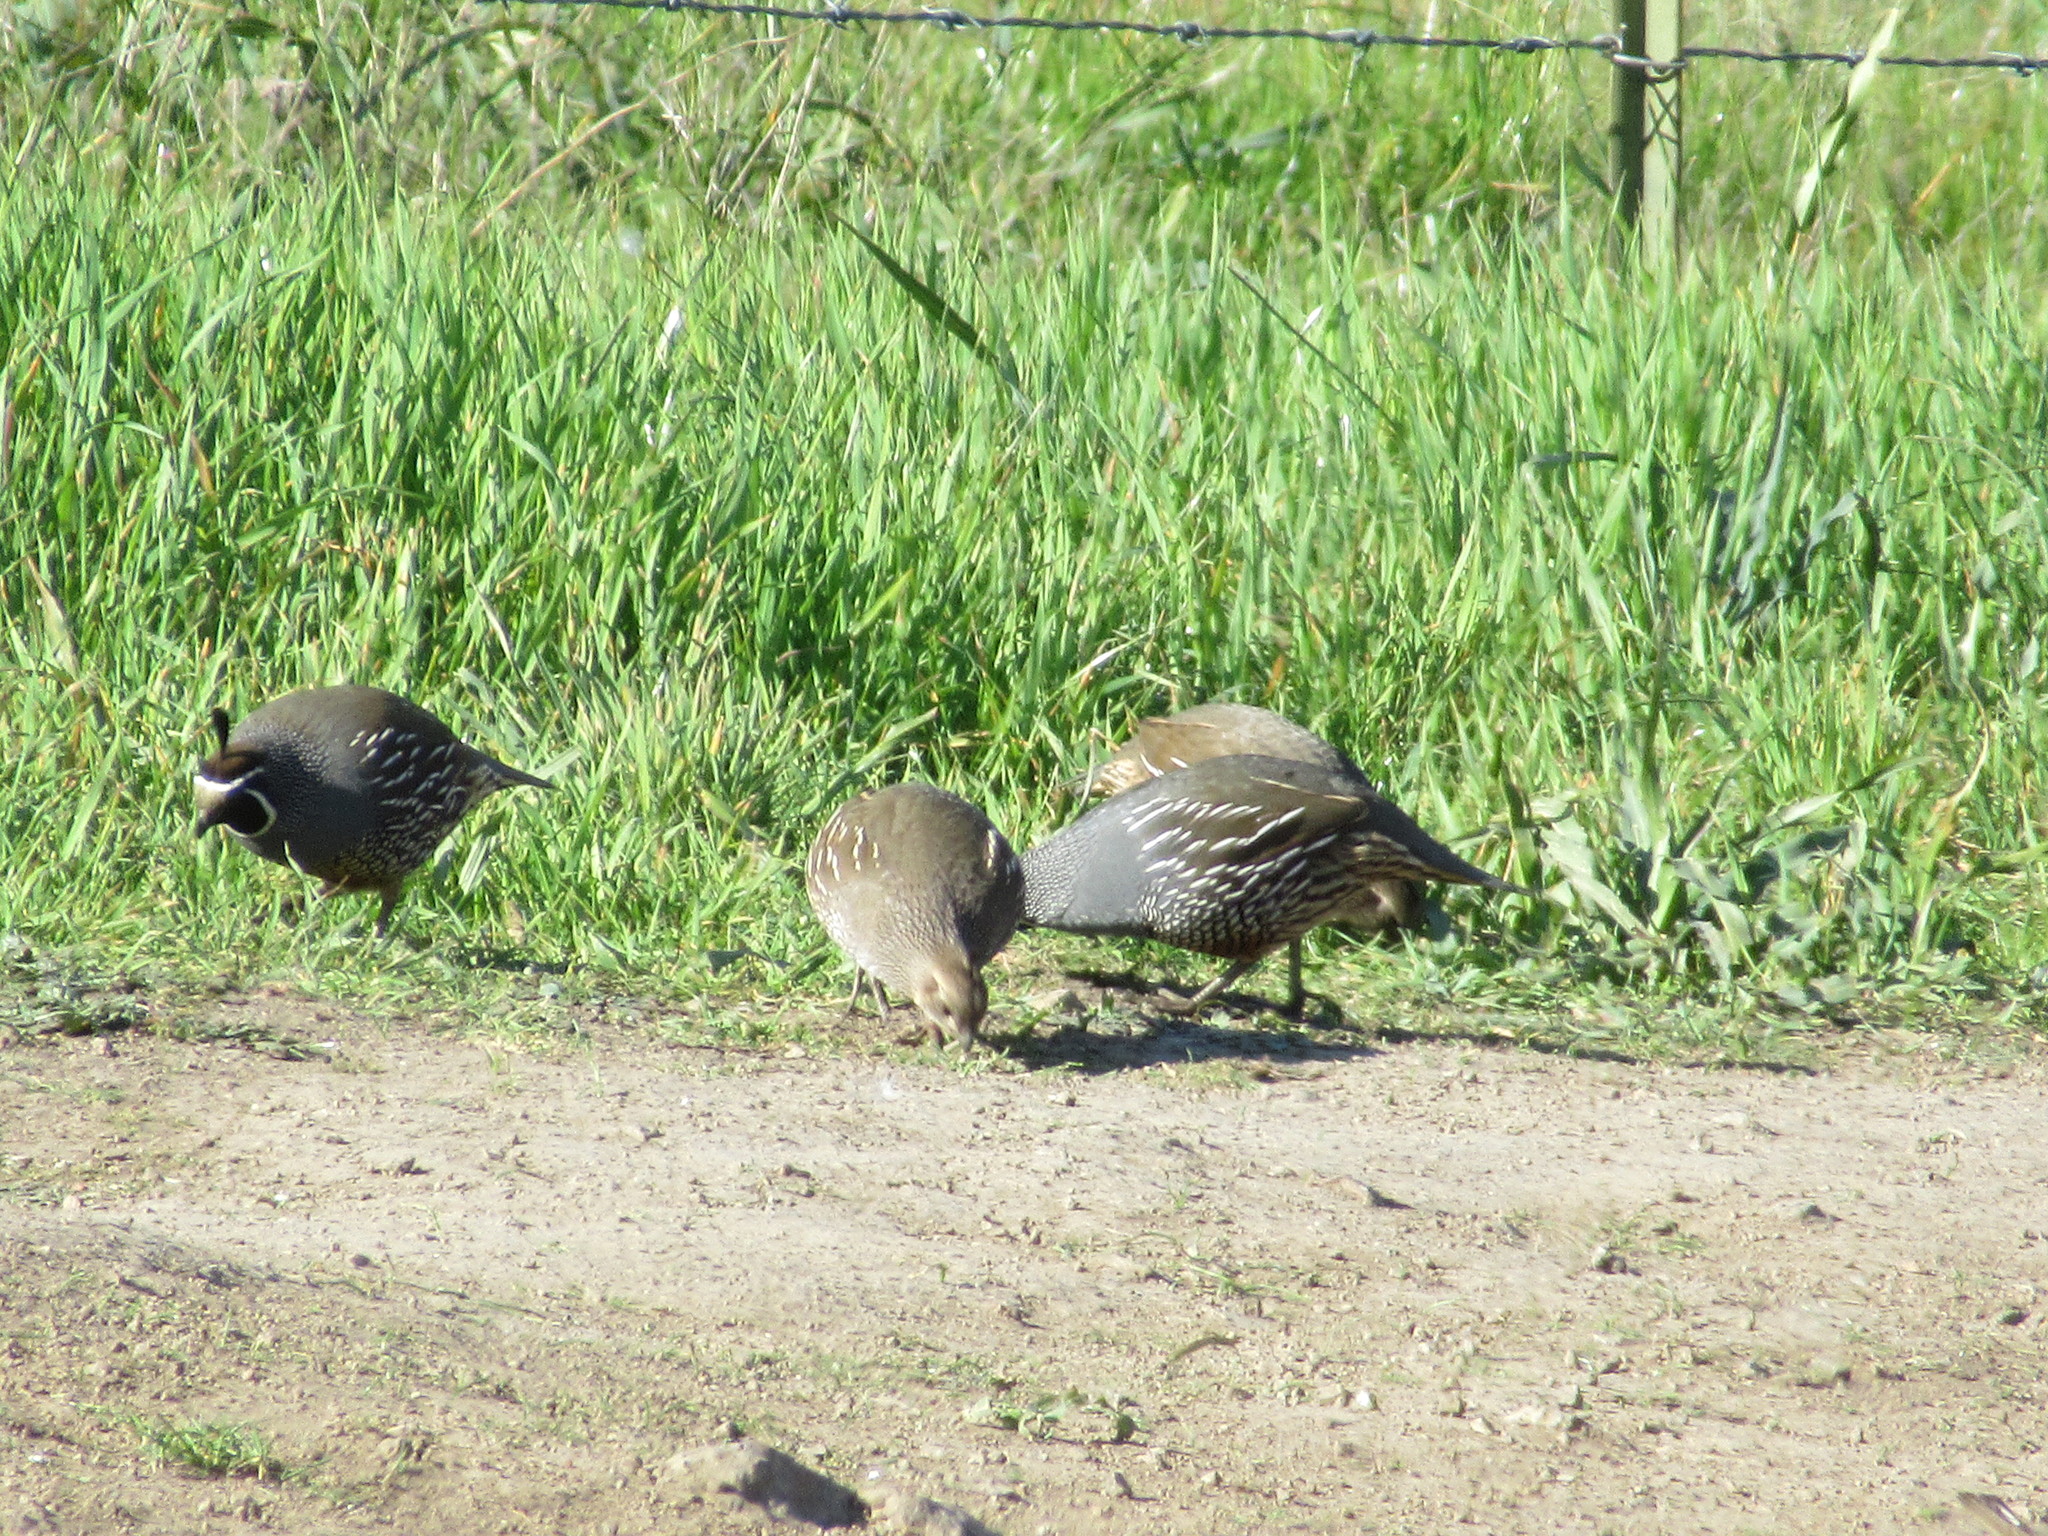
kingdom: Animalia
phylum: Chordata
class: Aves
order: Galliformes
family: Odontophoridae
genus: Callipepla
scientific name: Callipepla californica
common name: California quail
